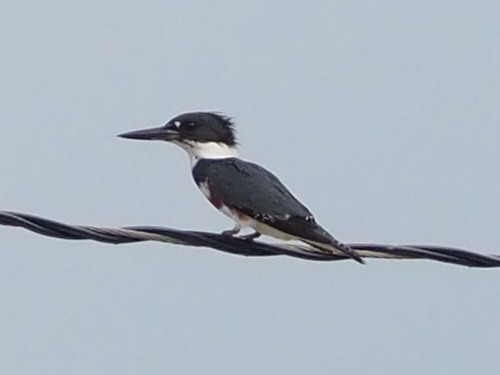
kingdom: Animalia
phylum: Chordata
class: Aves
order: Coraciiformes
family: Alcedinidae
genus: Megaceryle
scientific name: Megaceryle alcyon
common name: Belted kingfisher
